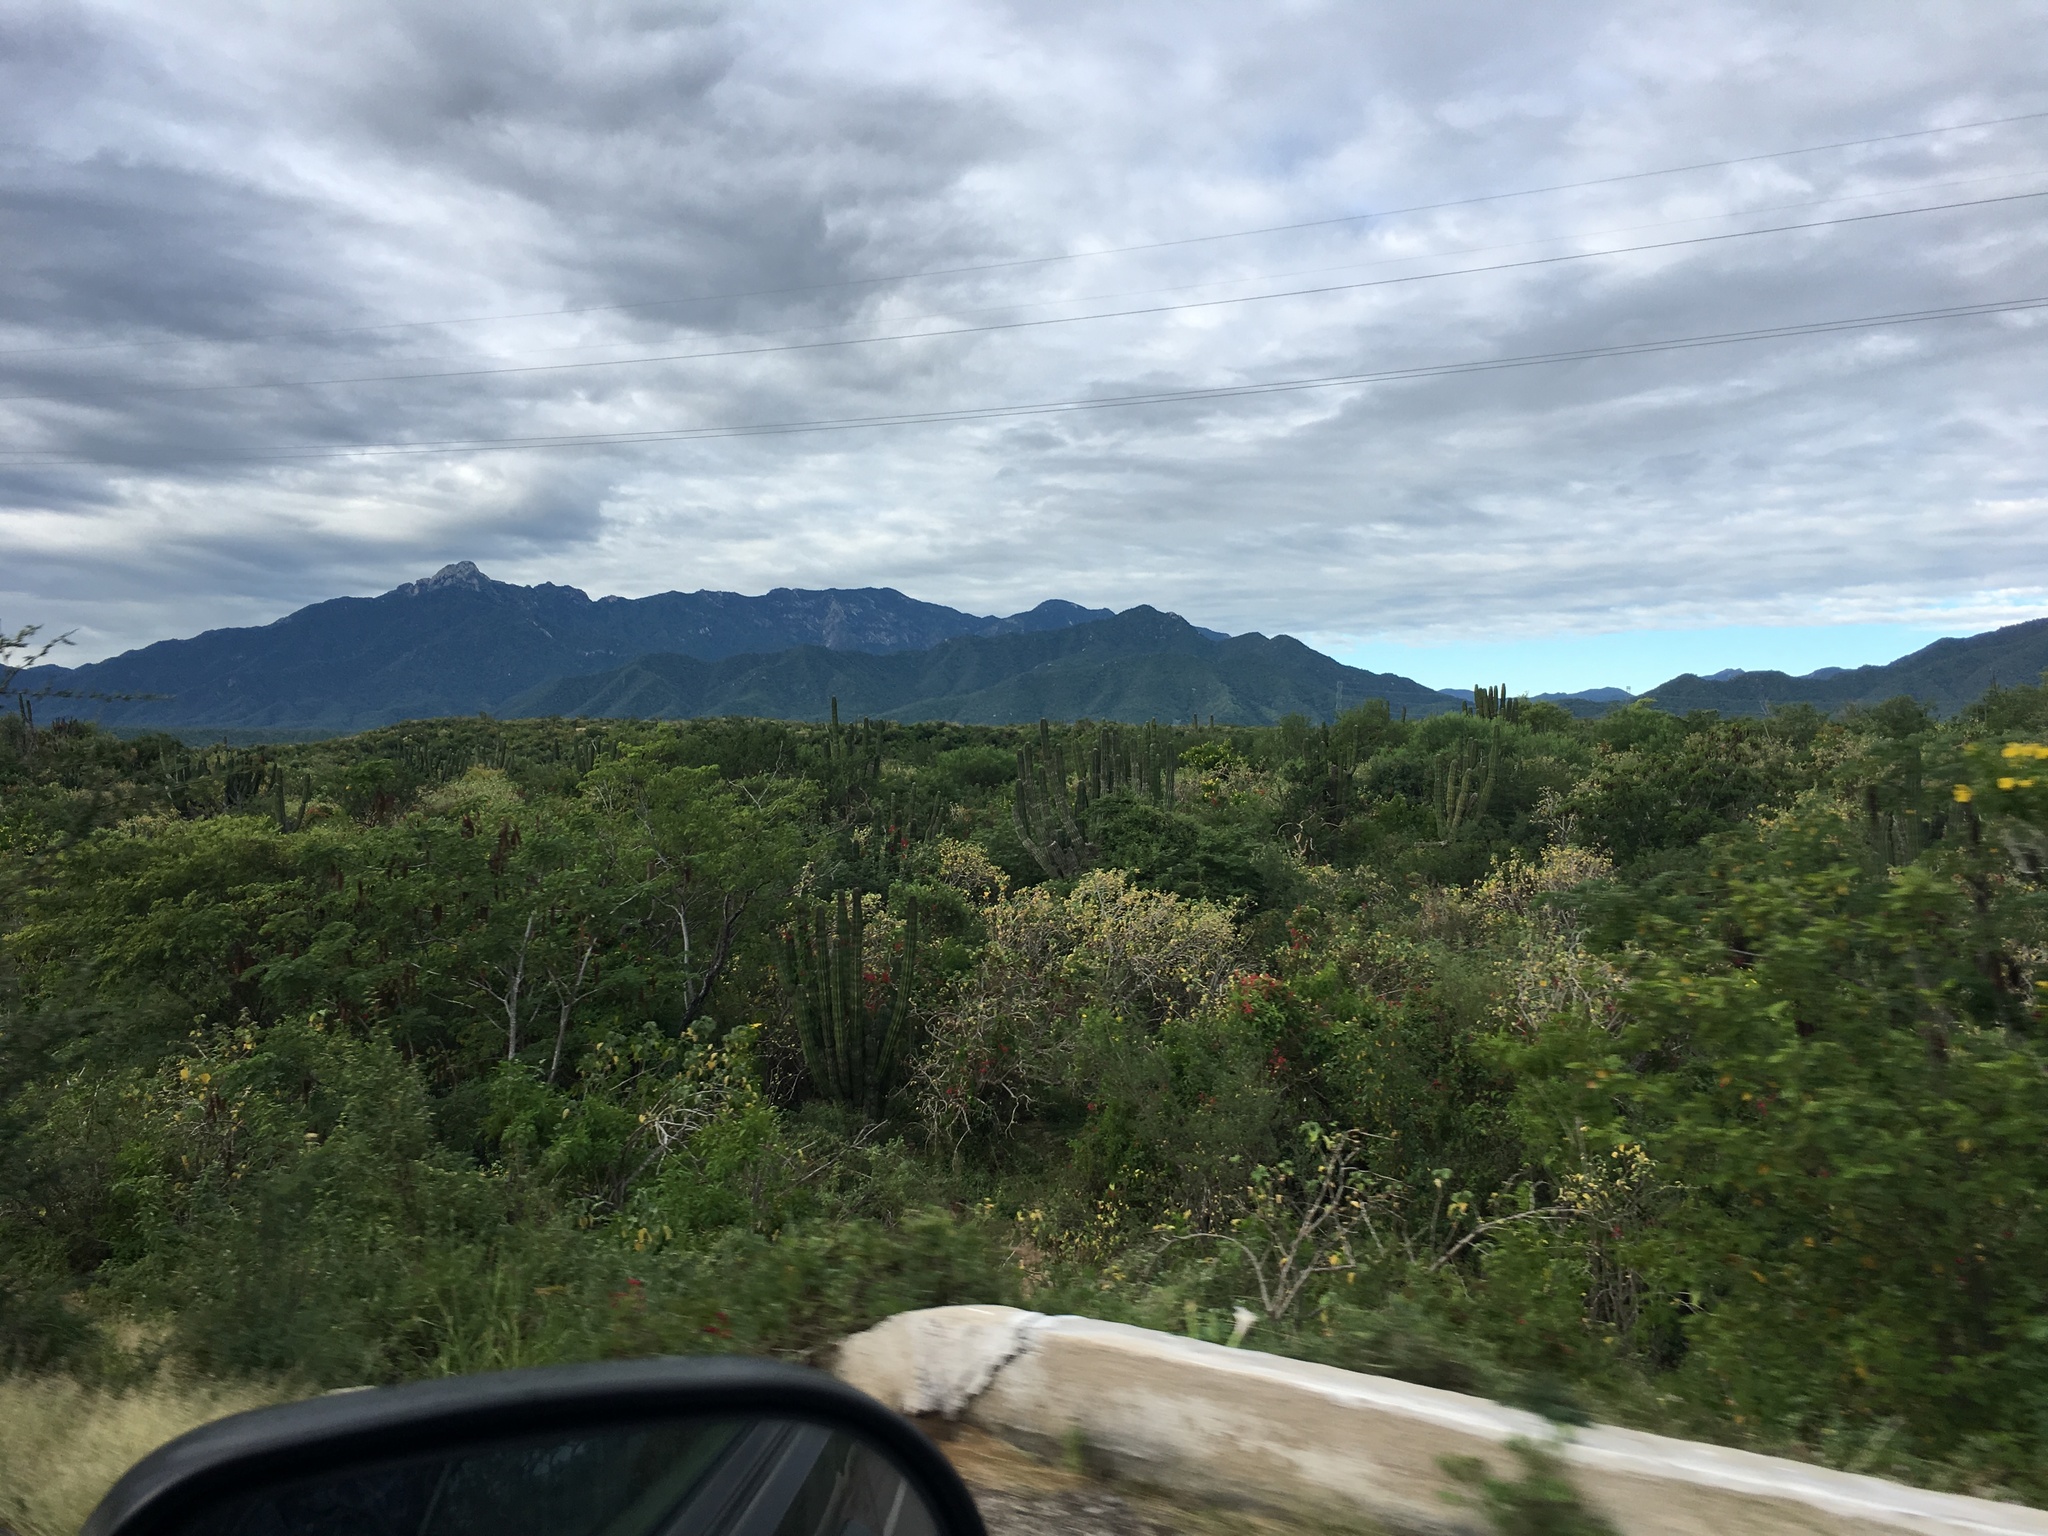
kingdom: Plantae
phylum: Tracheophyta
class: Magnoliopsida
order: Caryophyllales
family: Polygonaceae
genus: Antigonon
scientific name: Antigonon leptopus
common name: Coral vine
